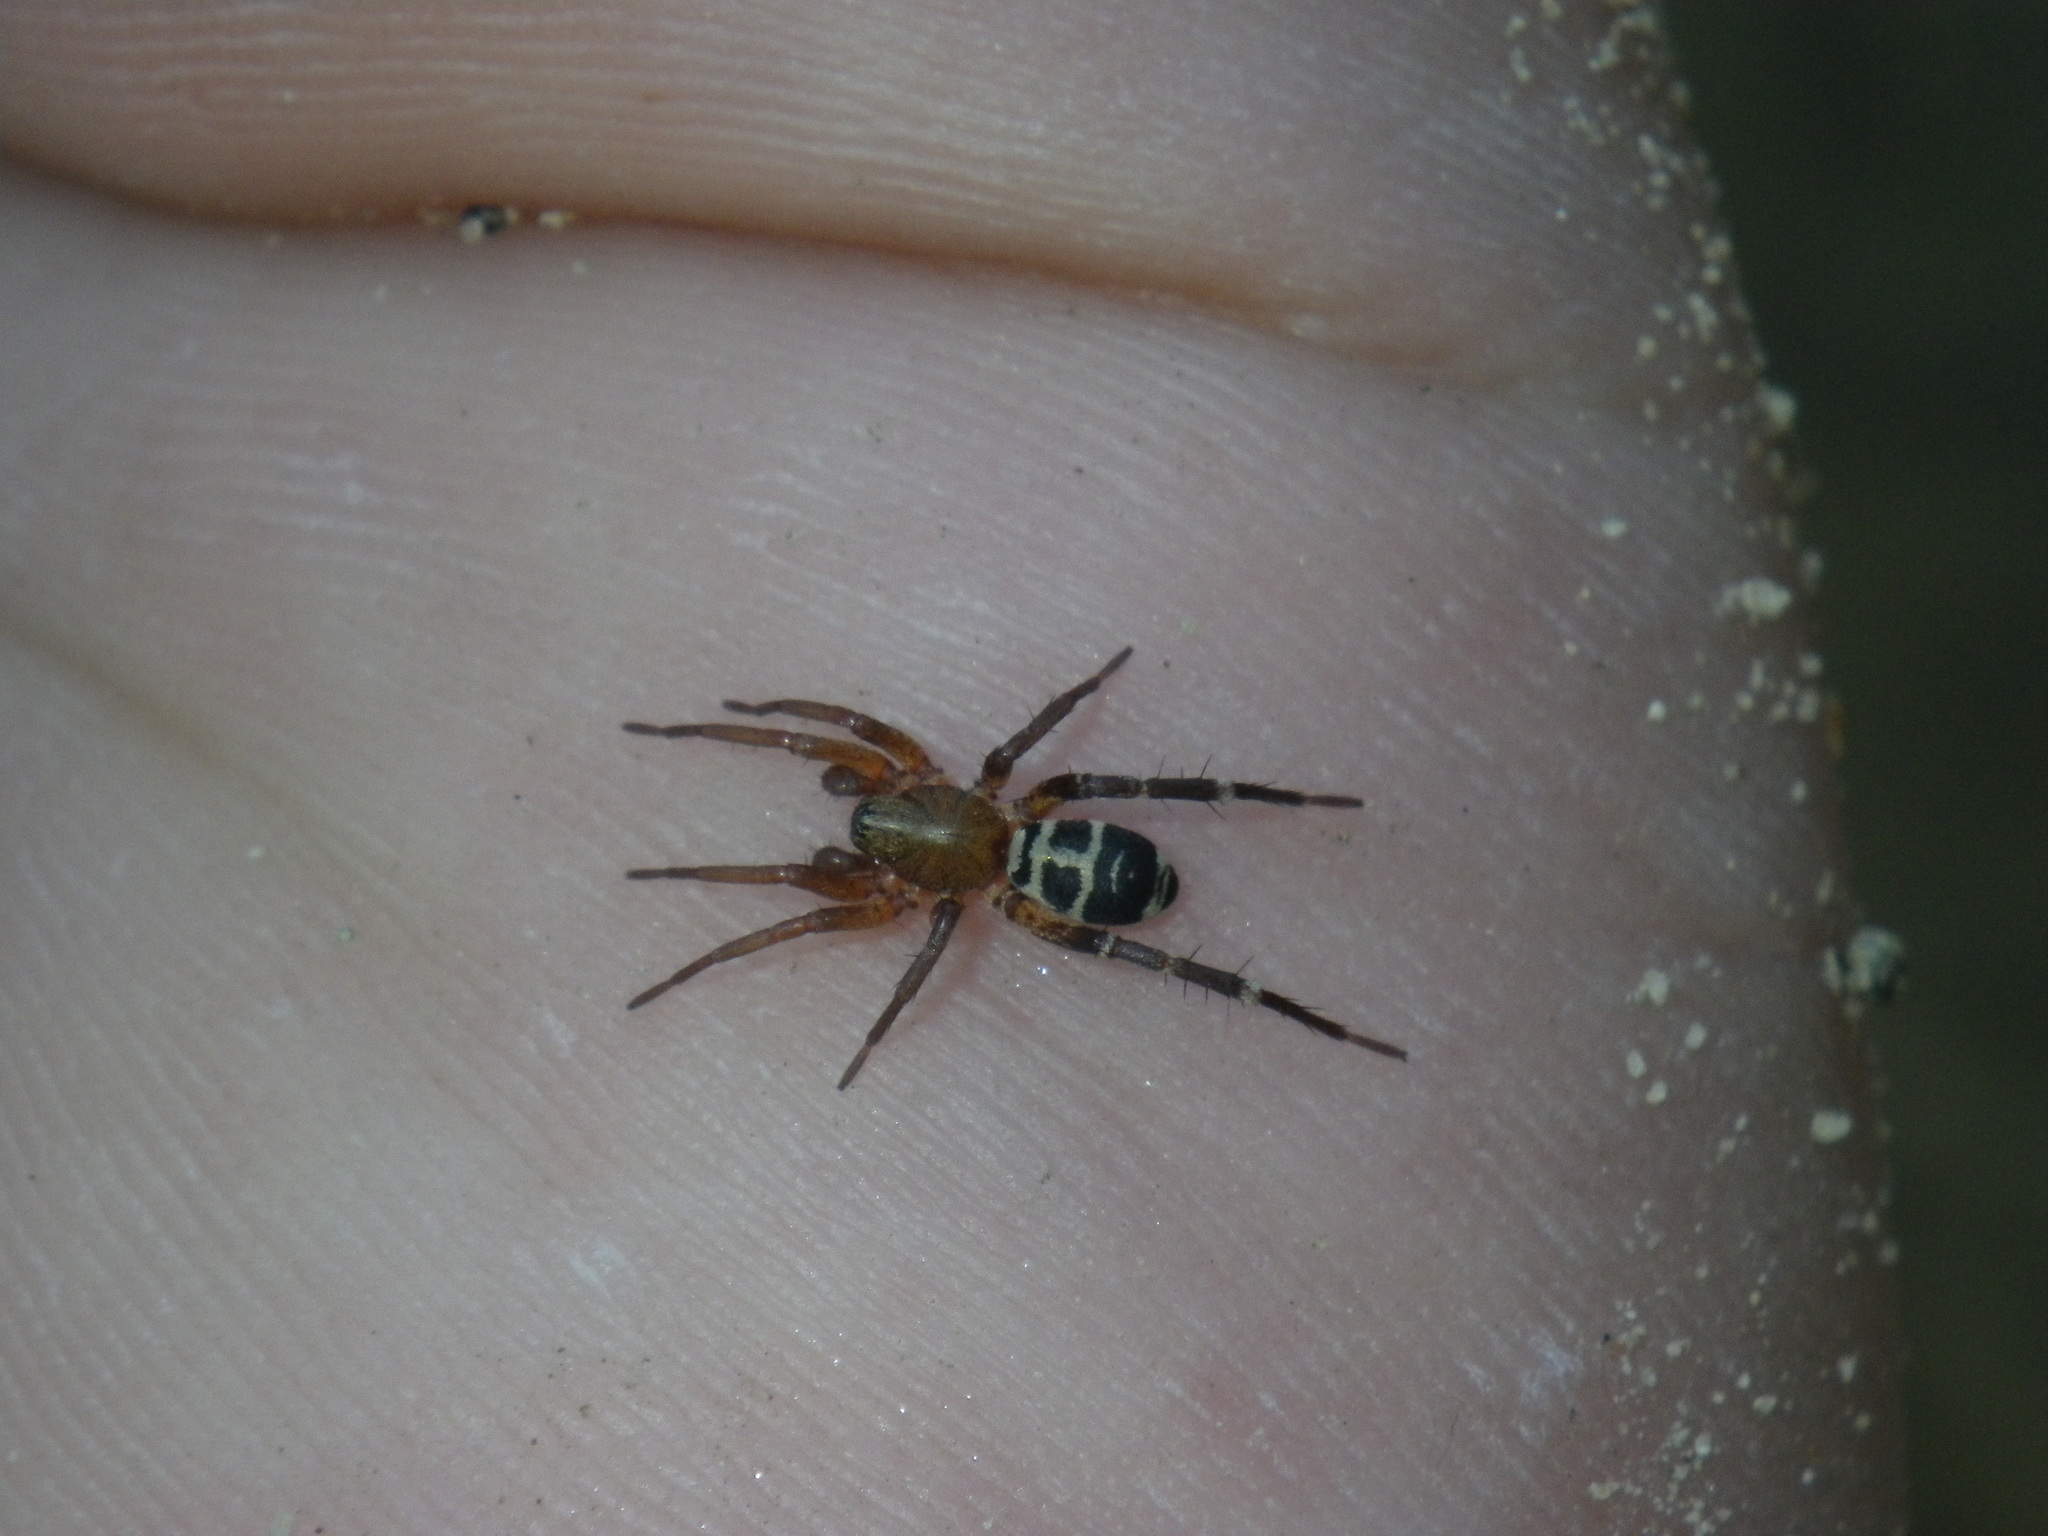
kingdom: Animalia
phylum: Arthropoda
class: Arachnida
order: Araneae
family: Corinnidae
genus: Castianeira
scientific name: Castianeira thalia
